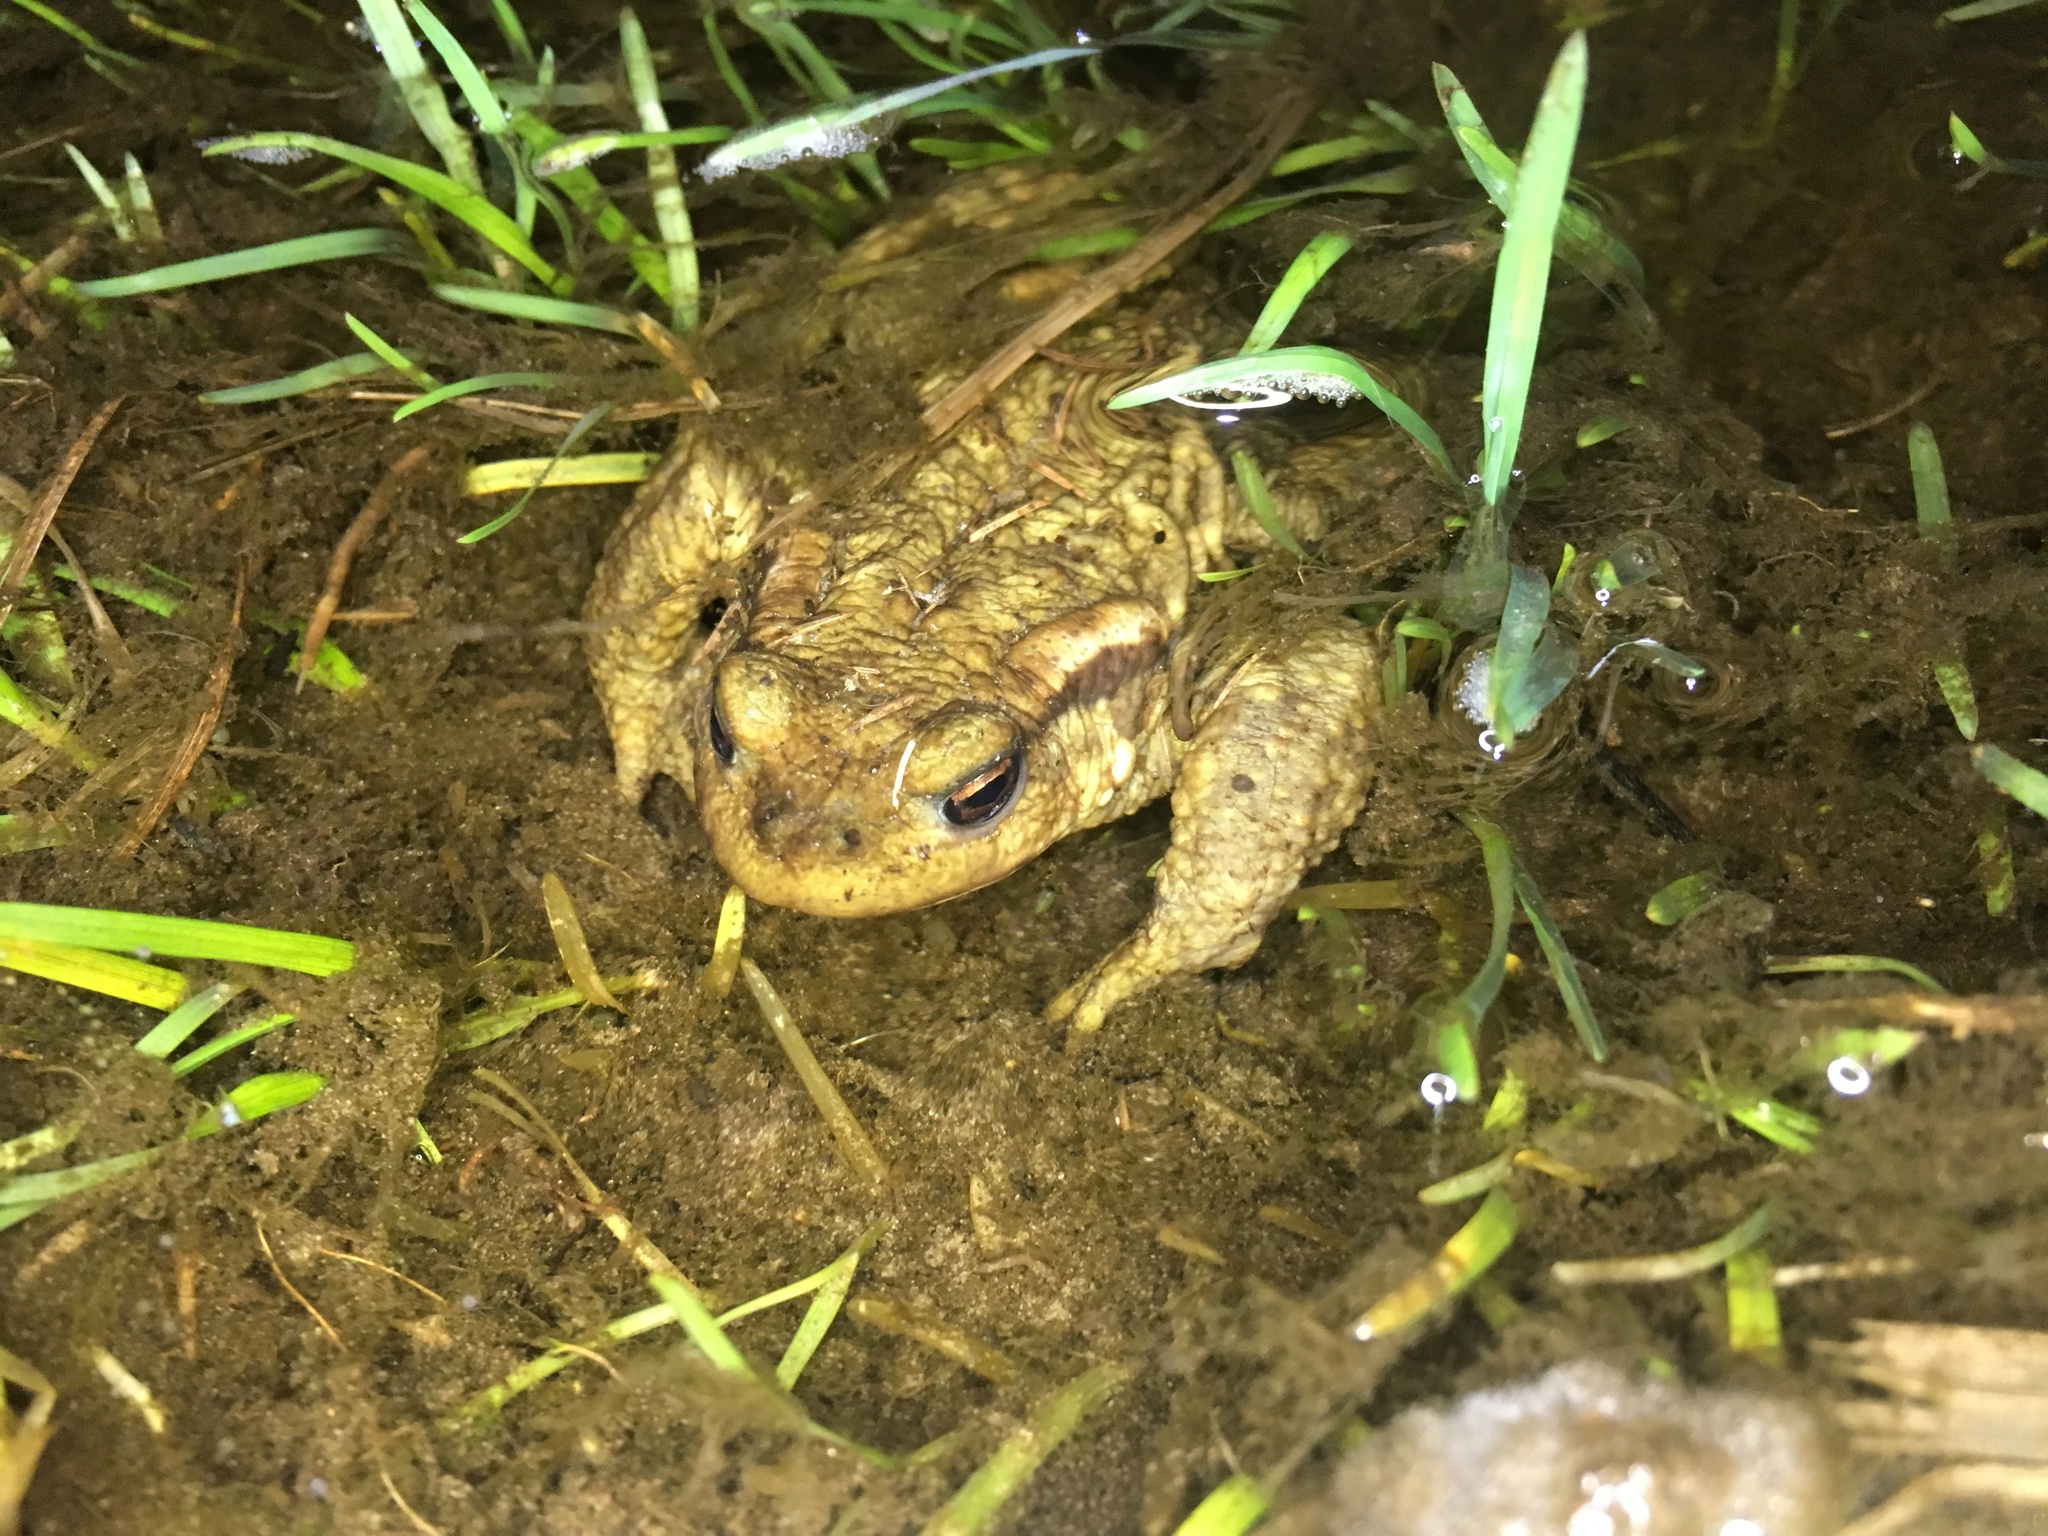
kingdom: Animalia
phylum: Chordata
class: Amphibia
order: Anura
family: Bufonidae
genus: Bufo
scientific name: Bufo spinosus
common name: Western common toad
